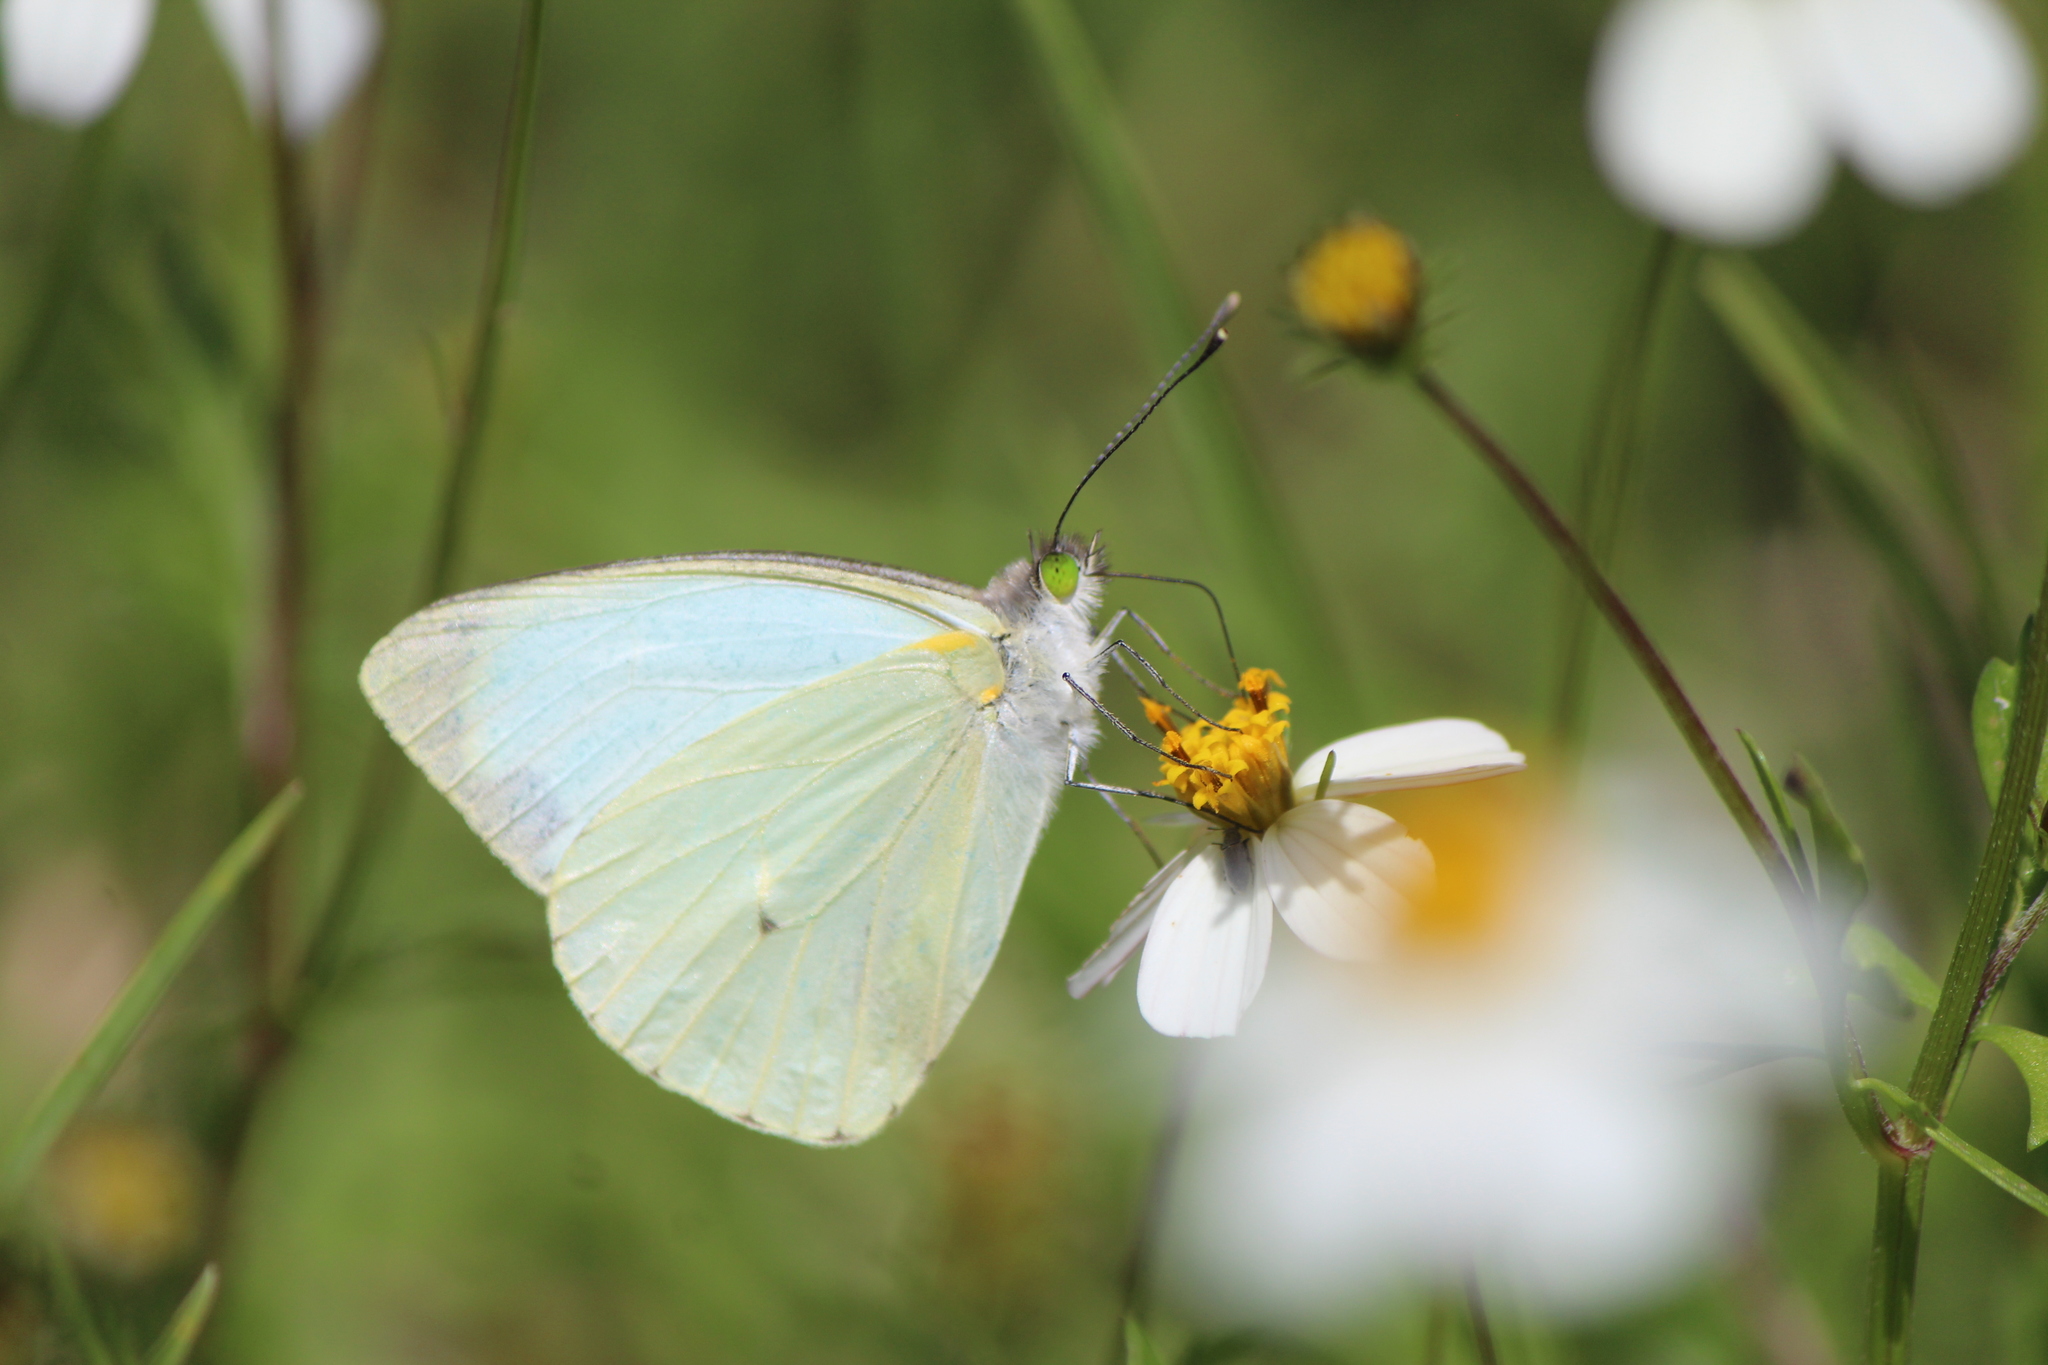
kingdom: Animalia
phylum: Arthropoda
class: Insecta
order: Lepidoptera
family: Pieridae
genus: Leptophobia
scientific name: Leptophobia aripa
